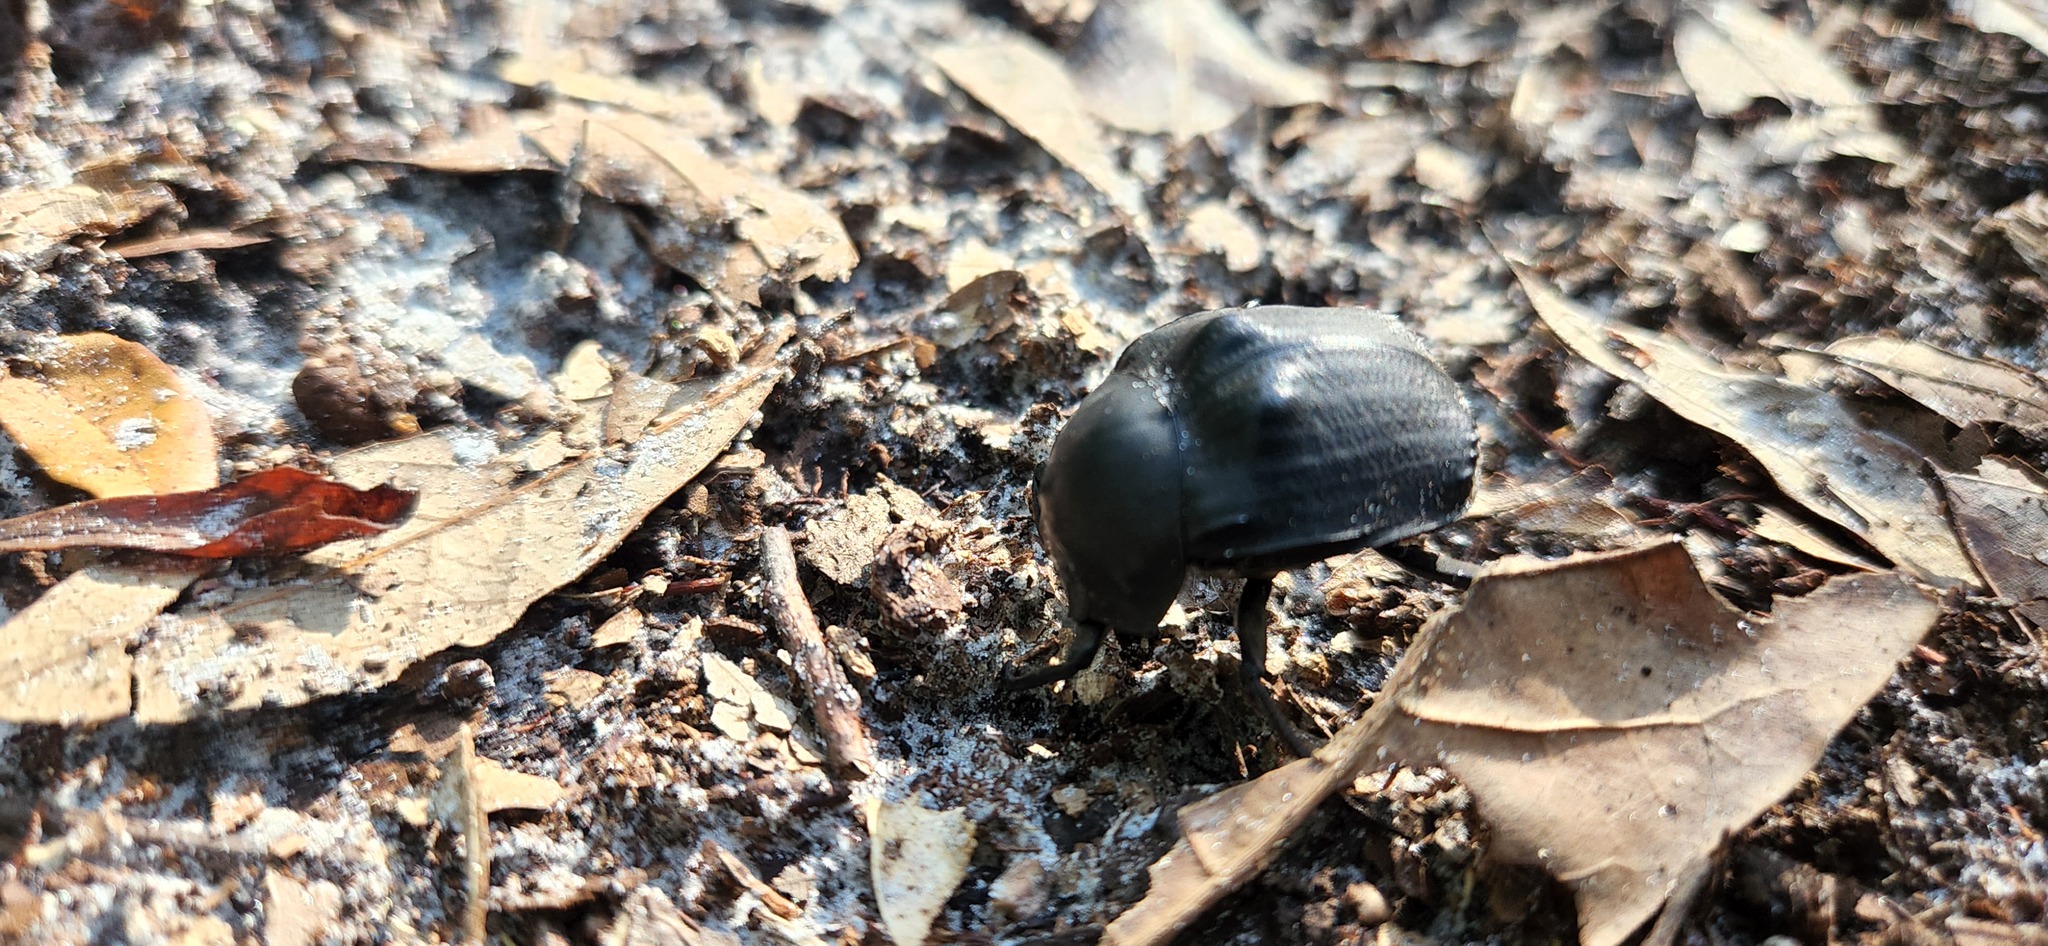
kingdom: Animalia
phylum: Arthropoda
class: Insecta
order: Coleoptera
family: Scarabaeidae
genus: Deltochilum
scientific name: Deltochilum gibbosum
